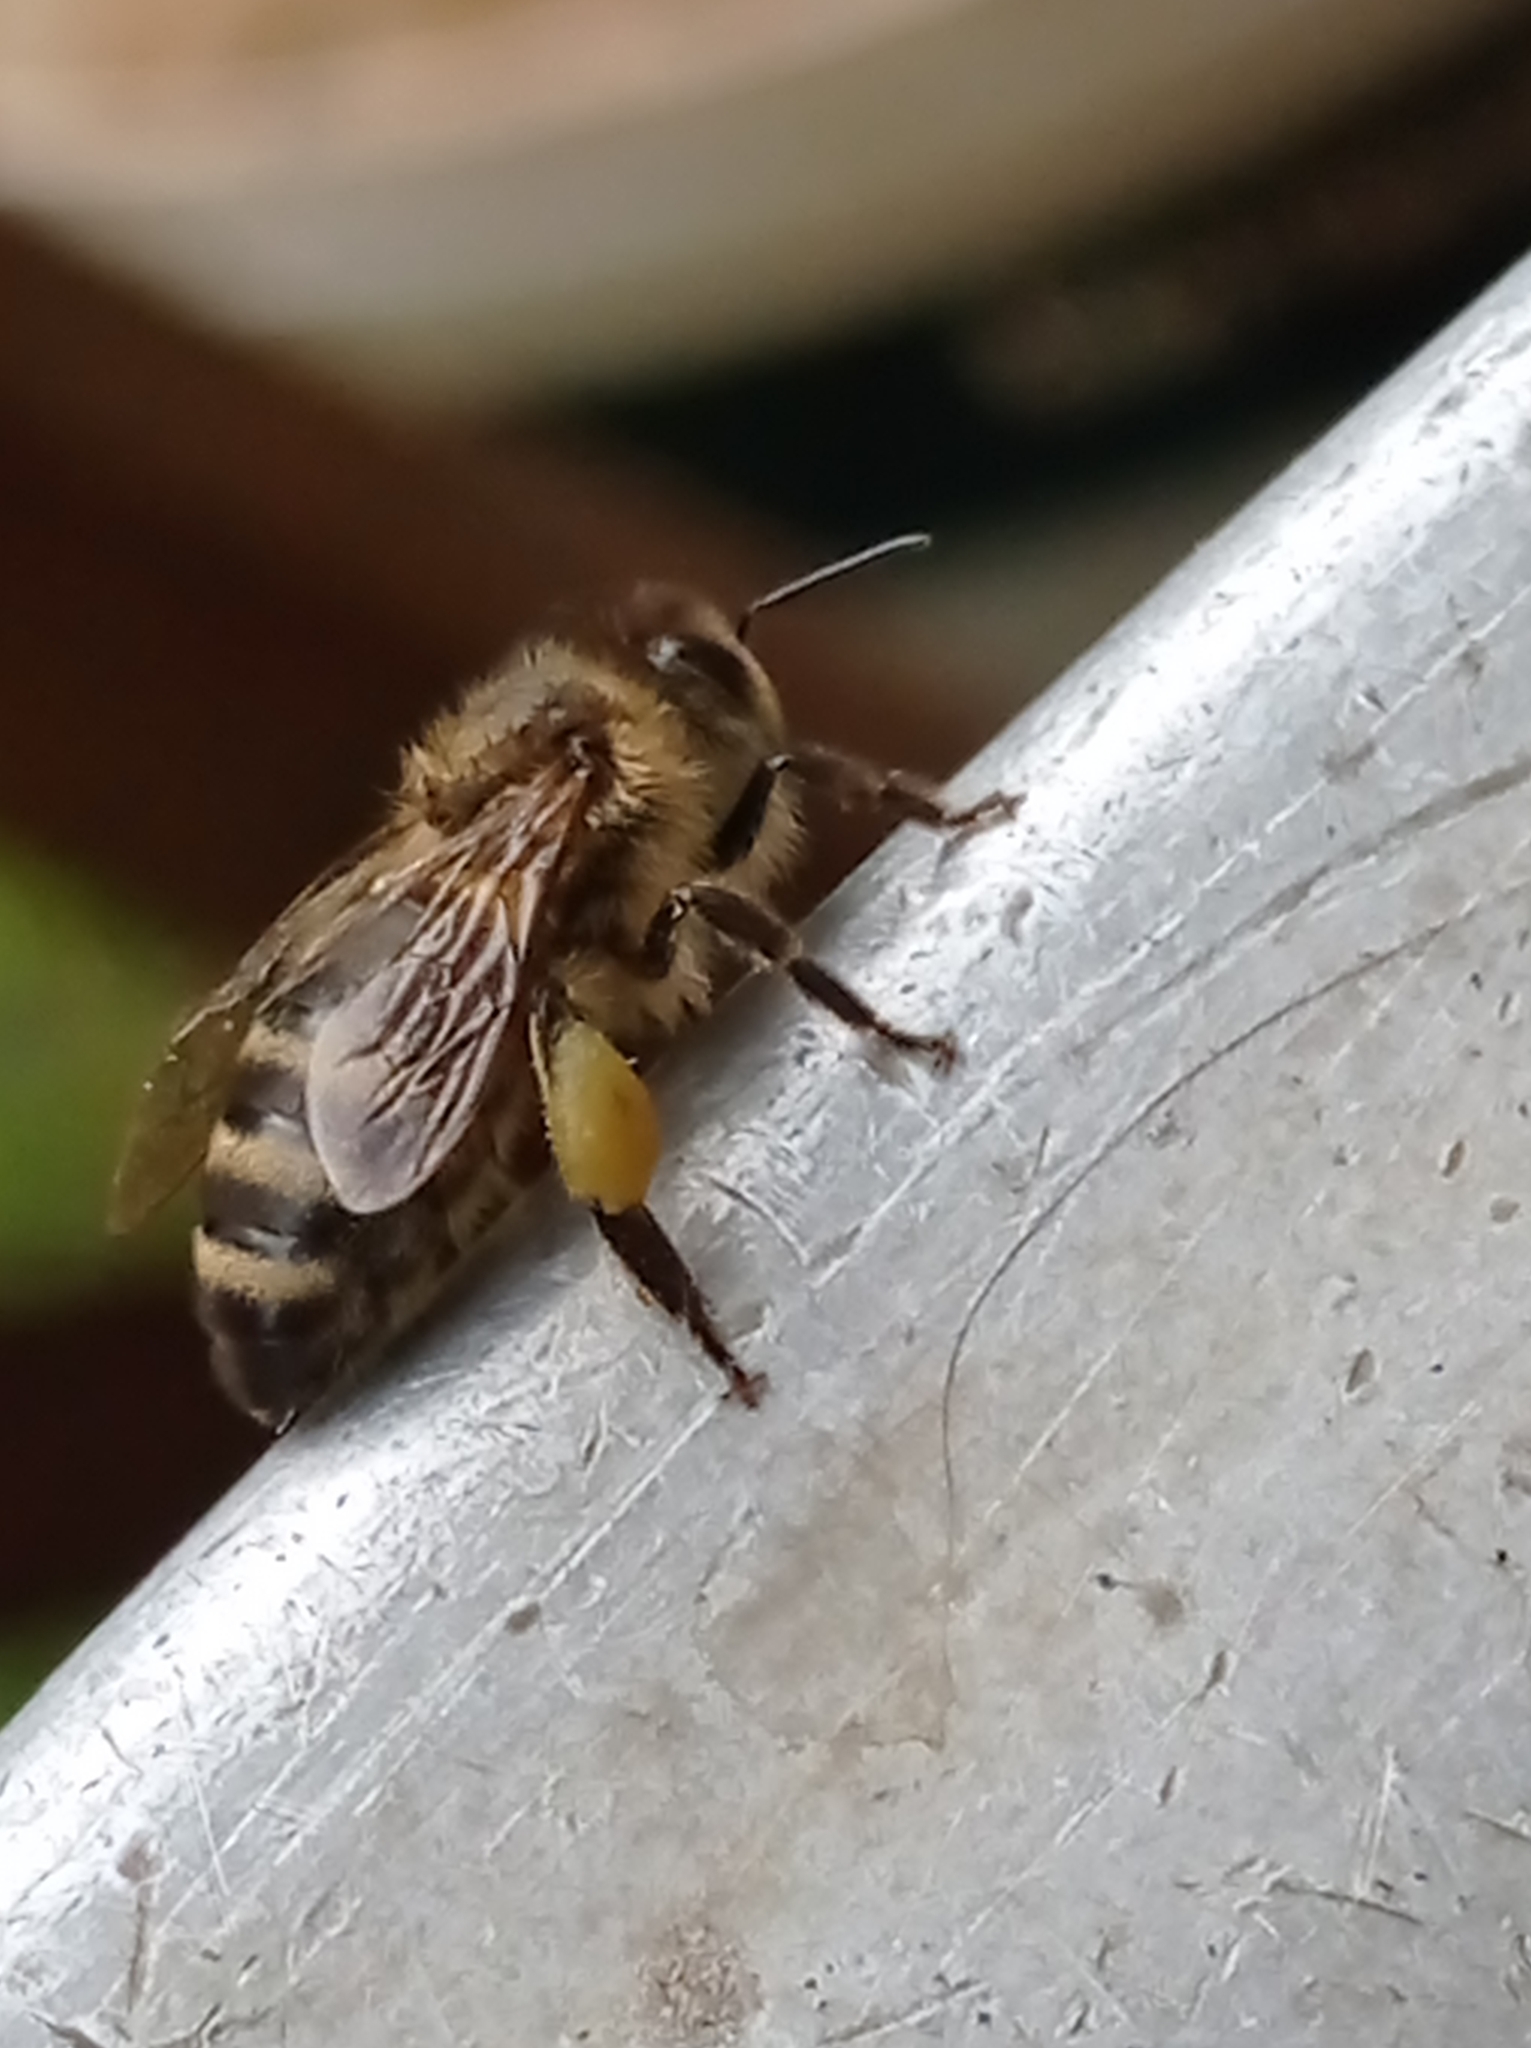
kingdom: Animalia
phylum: Arthropoda
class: Insecta
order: Hymenoptera
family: Apidae
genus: Apis
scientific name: Apis mellifera
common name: Honey bee
